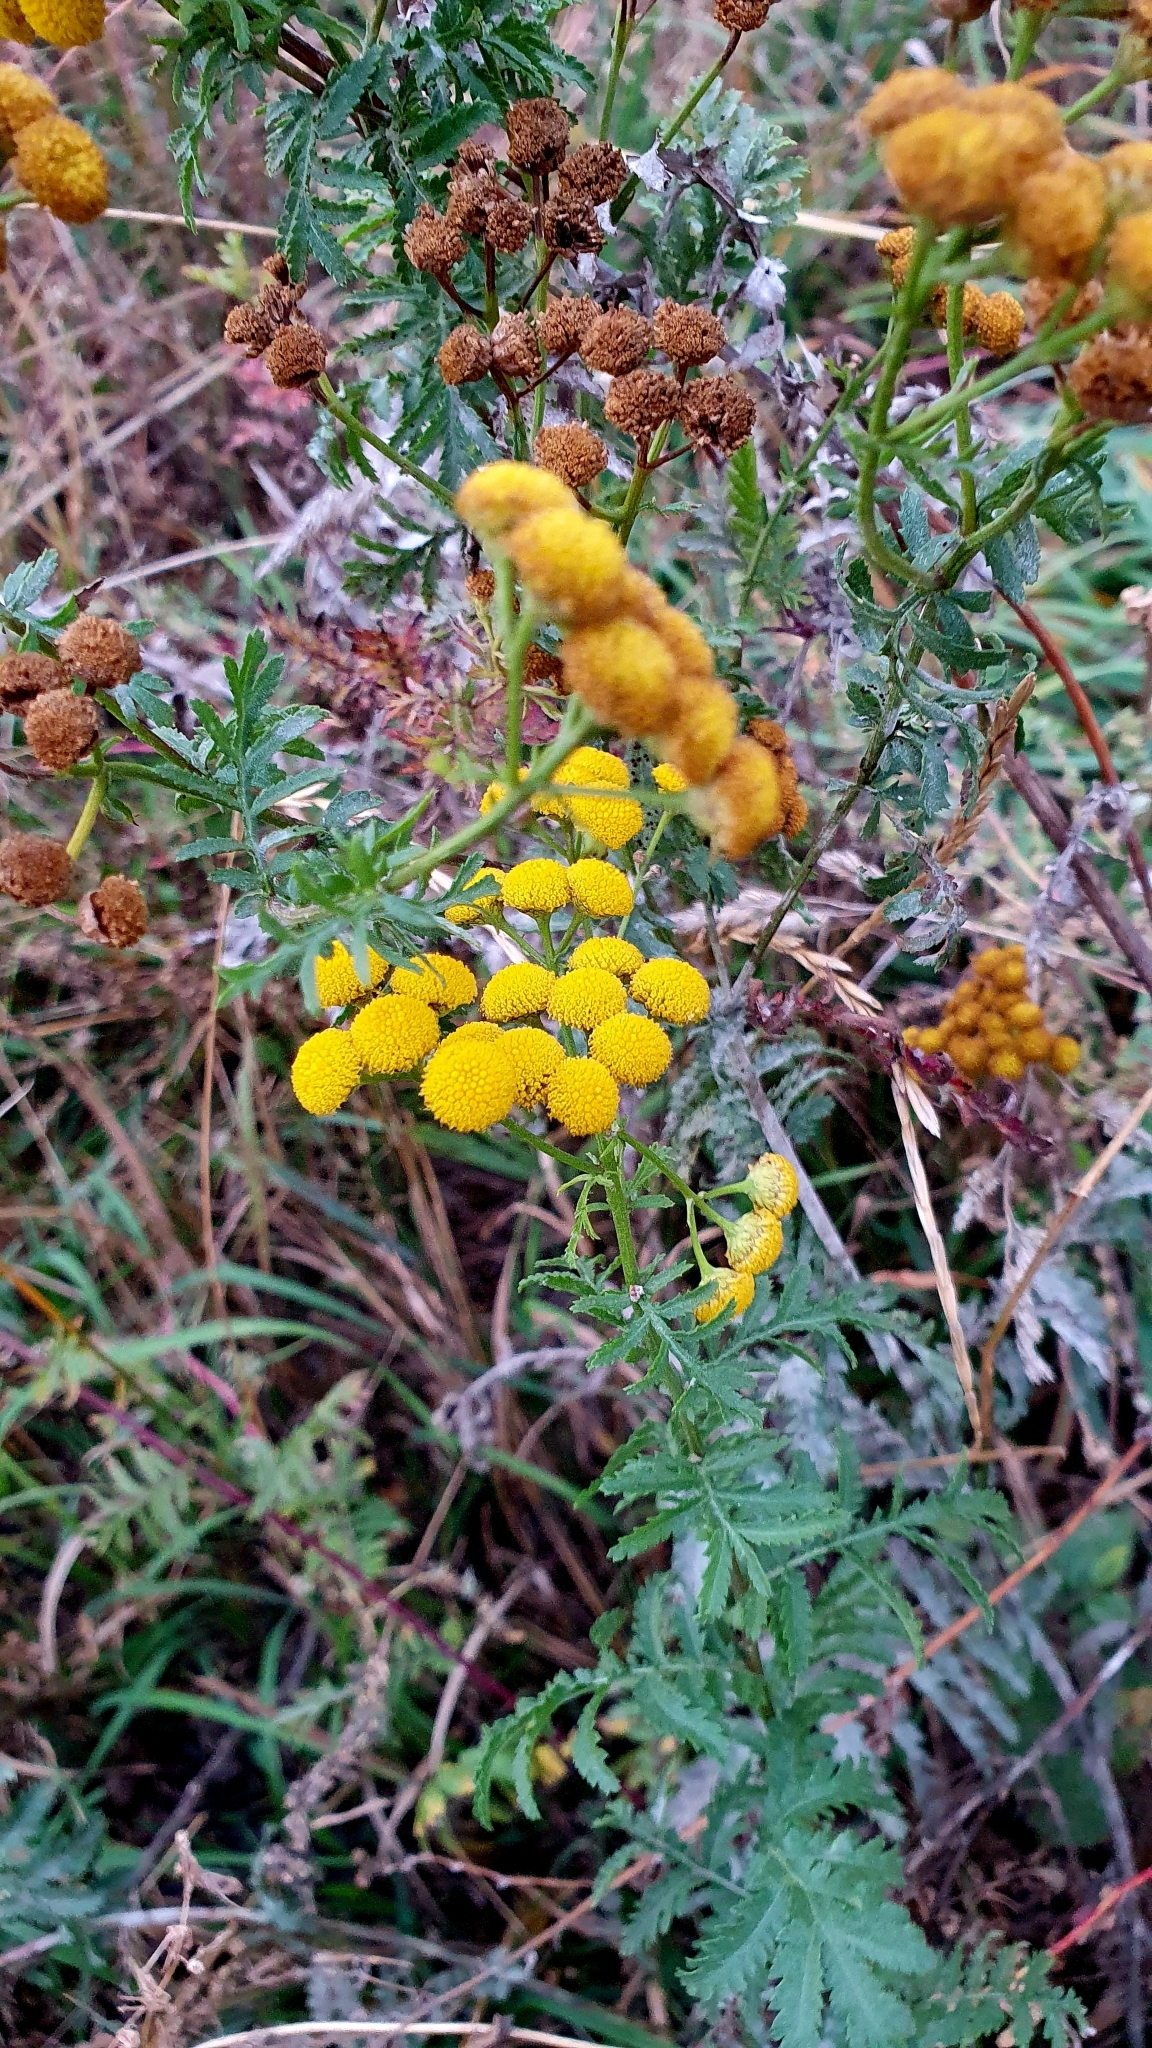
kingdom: Plantae
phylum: Tracheophyta
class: Magnoliopsida
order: Asterales
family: Asteraceae
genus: Tanacetum
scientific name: Tanacetum vulgare
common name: Common tansy
